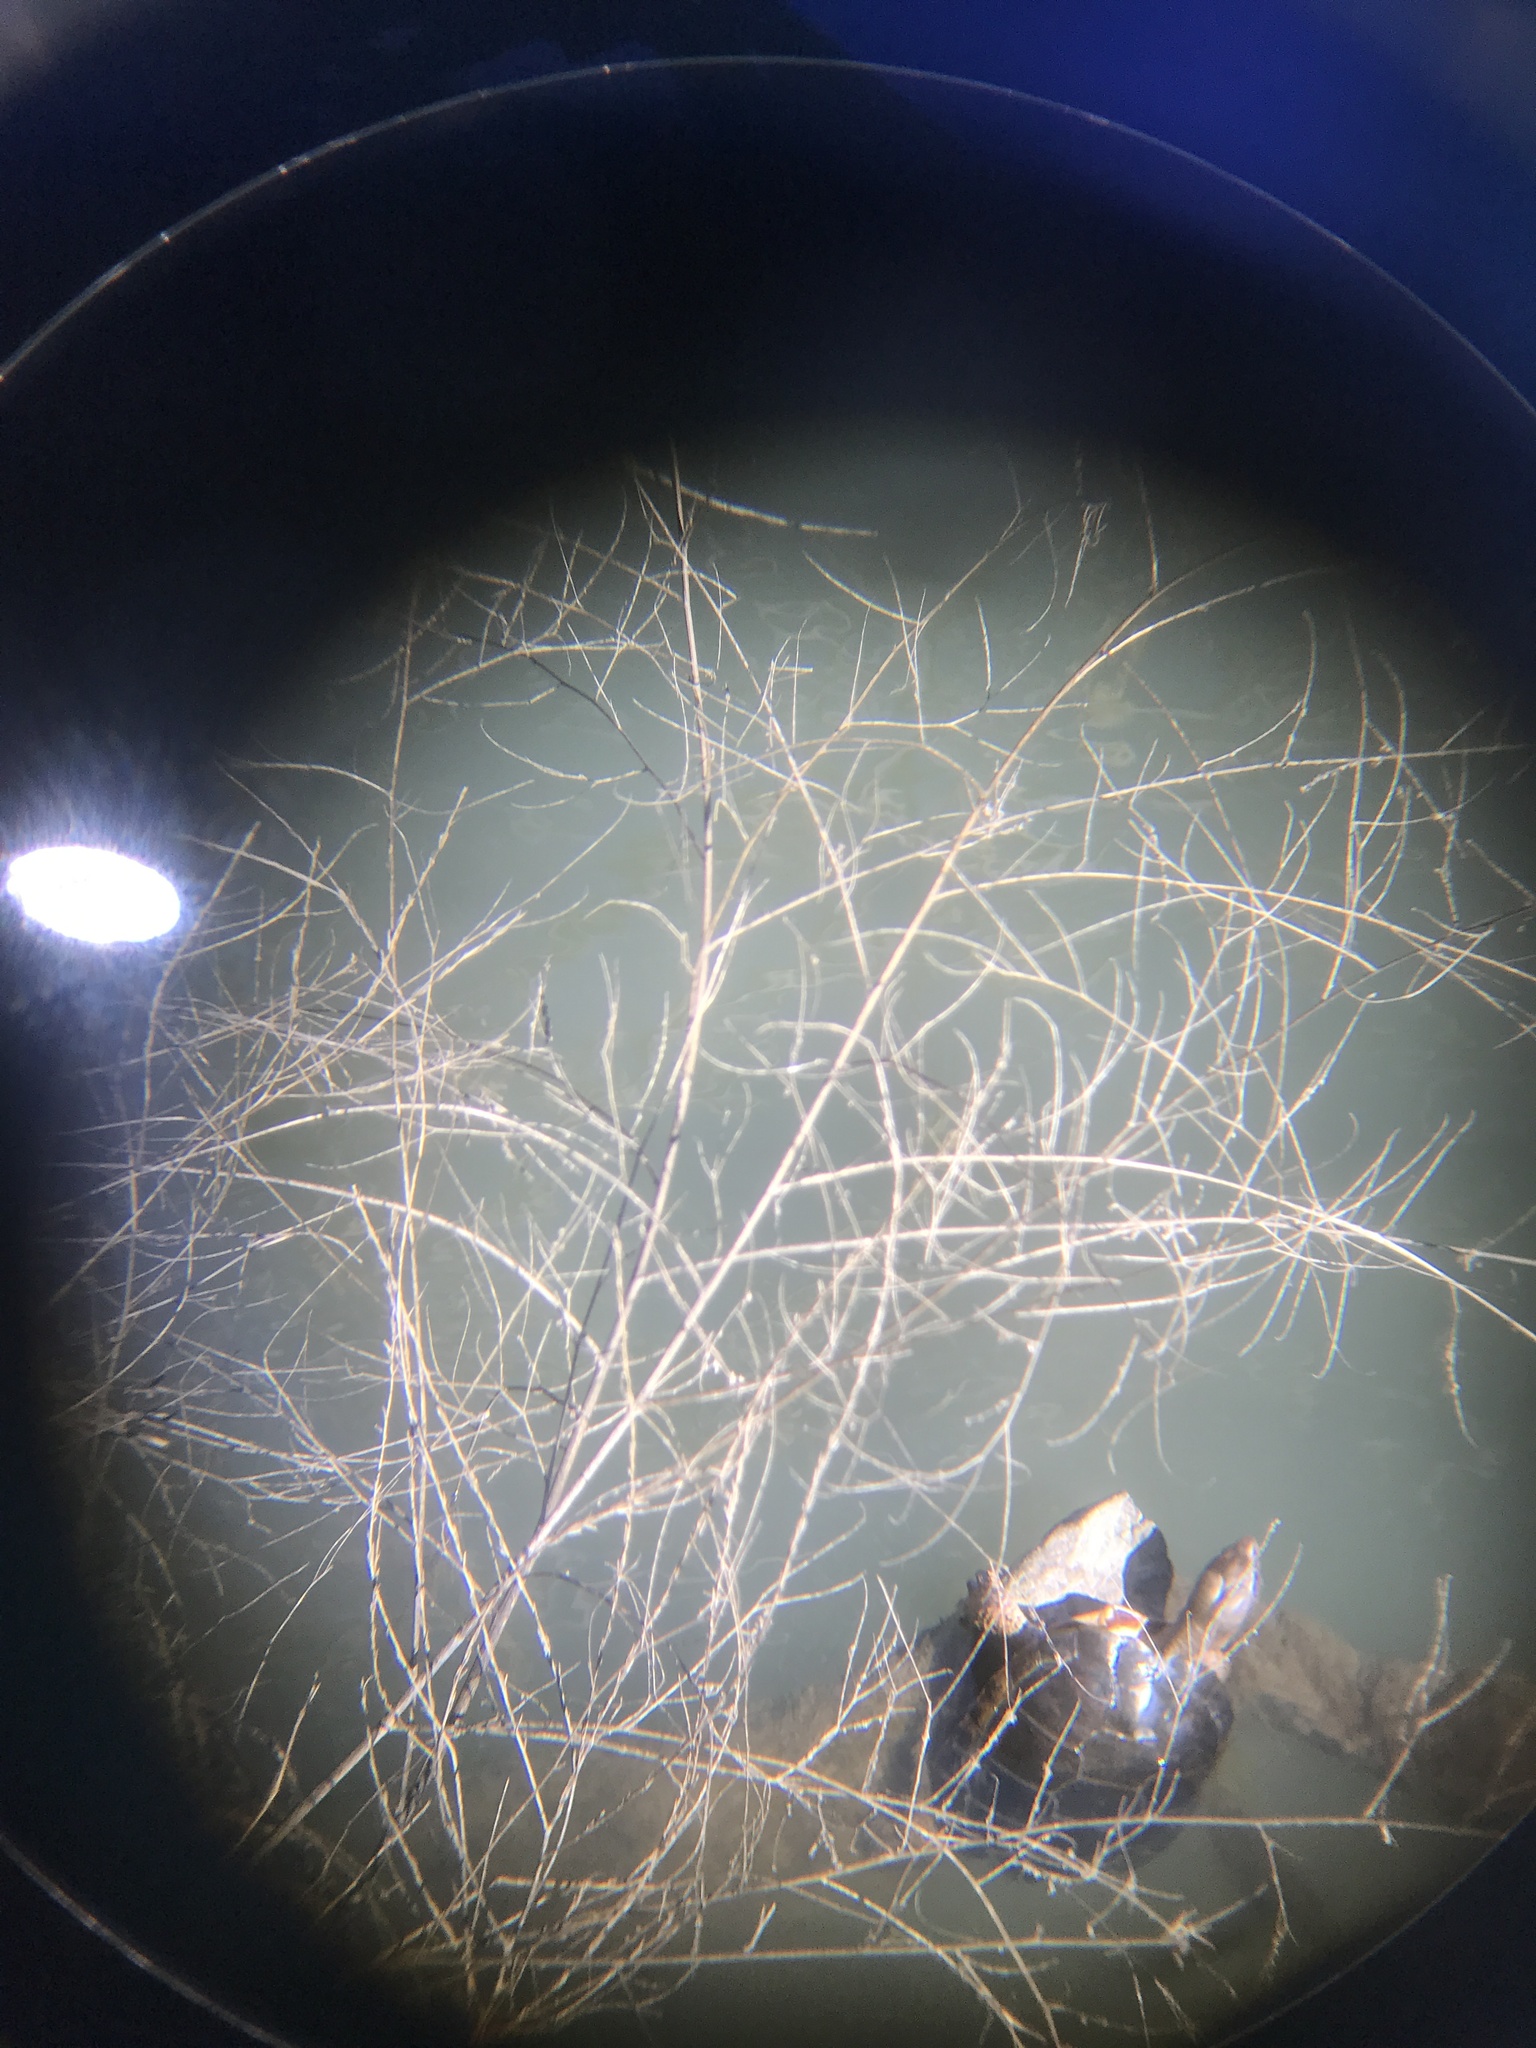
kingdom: Animalia
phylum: Chordata
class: Testudines
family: Emydidae
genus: Actinemys
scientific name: Actinemys marmorata
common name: Western pond turtle
